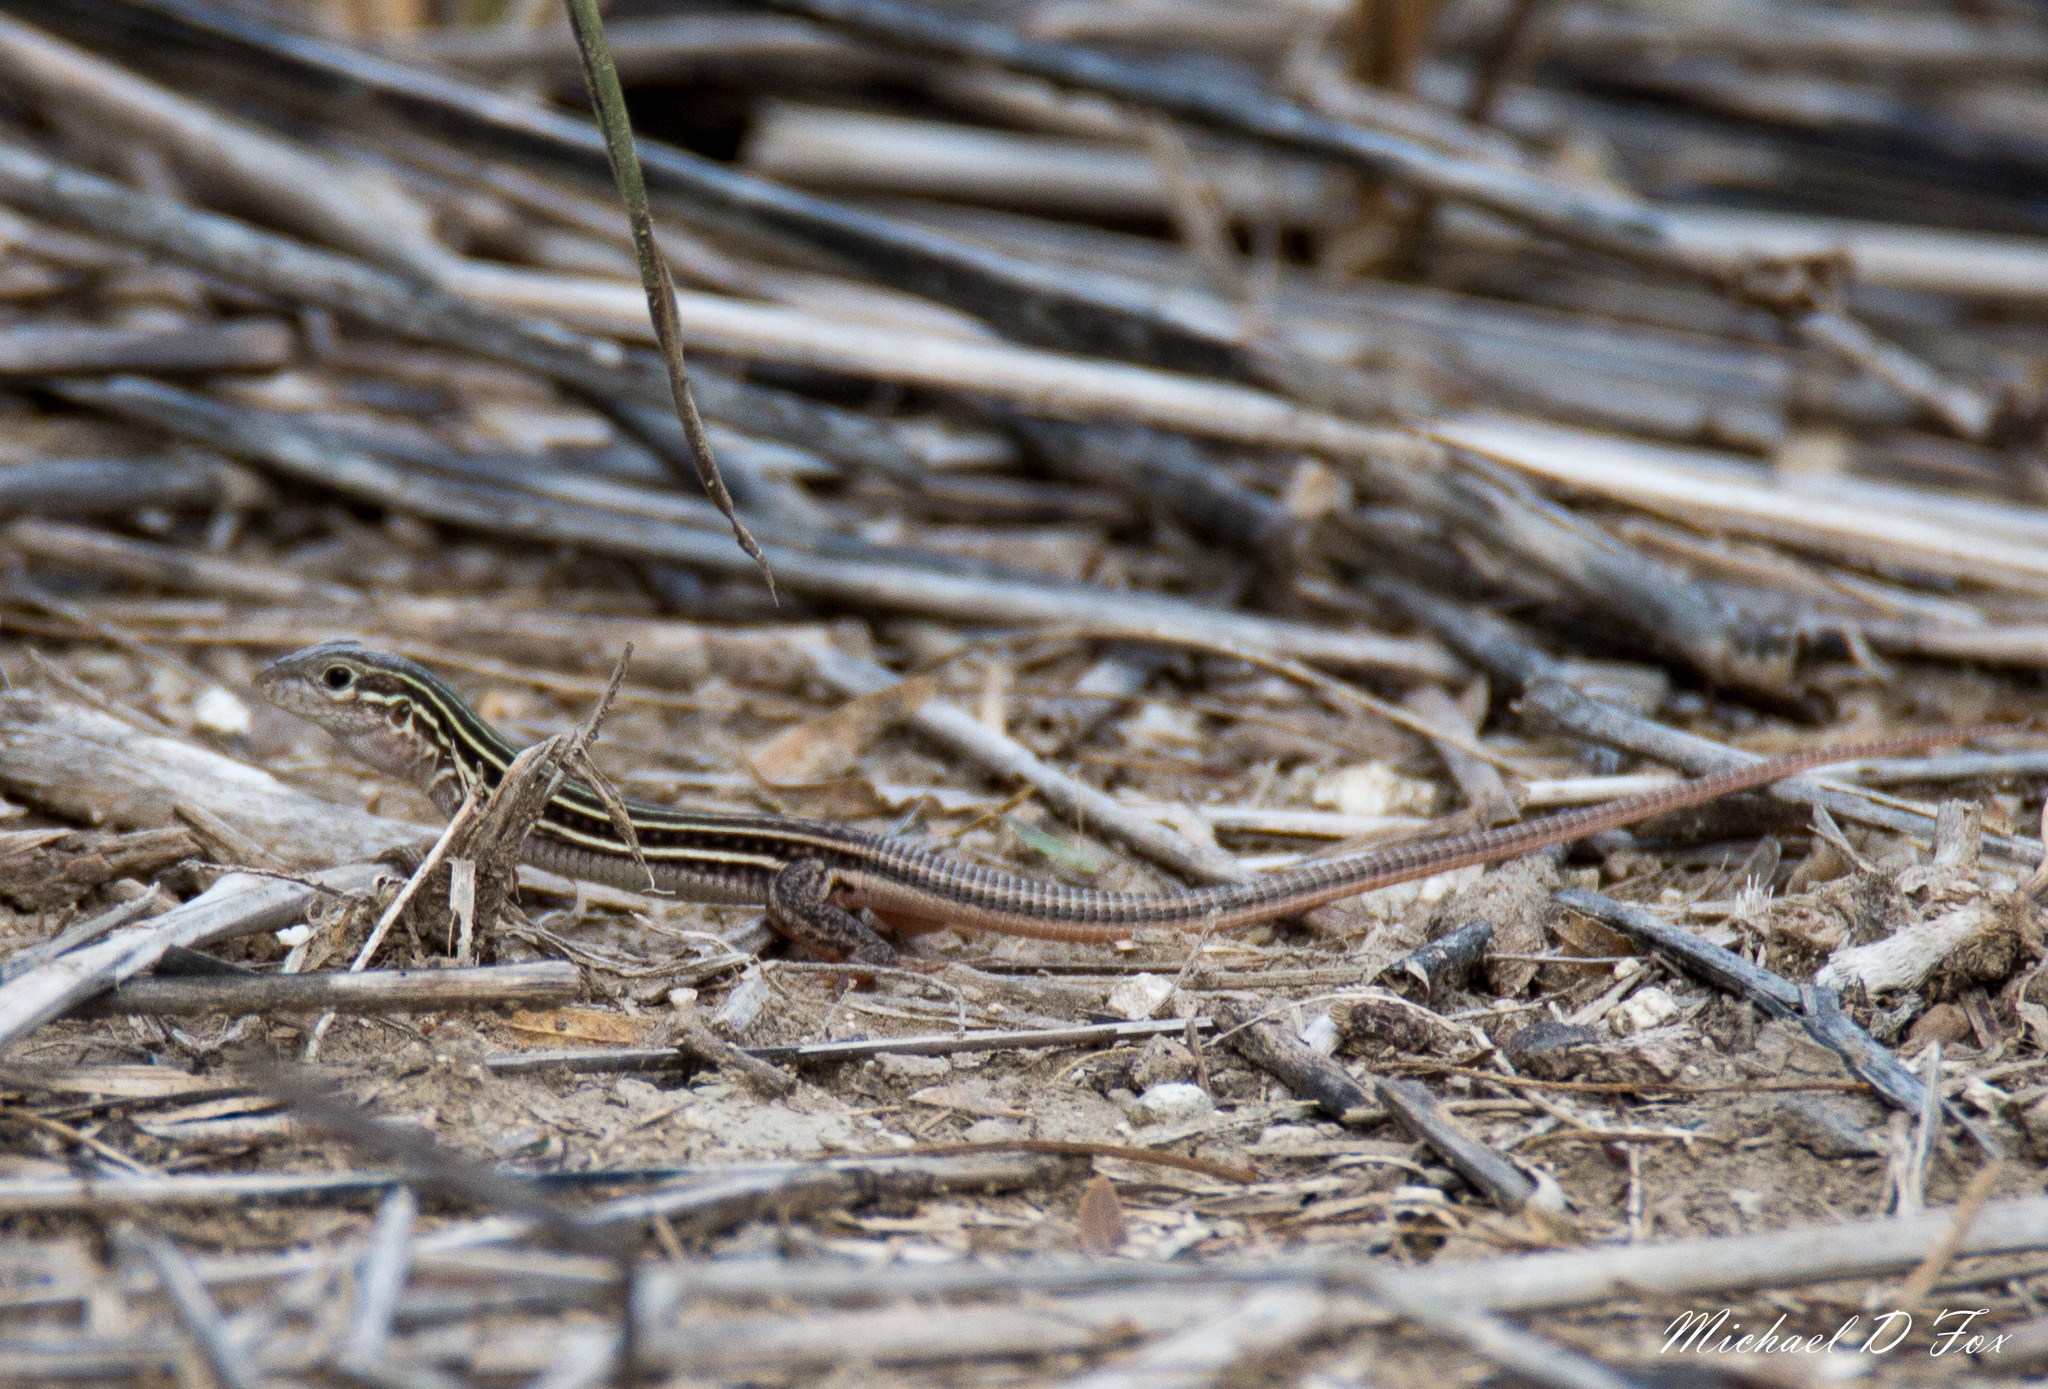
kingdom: Animalia
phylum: Chordata
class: Squamata
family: Teiidae
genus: Aspidoscelis
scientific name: Aspidoscelis gularis
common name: Eastern spotted whiptail
